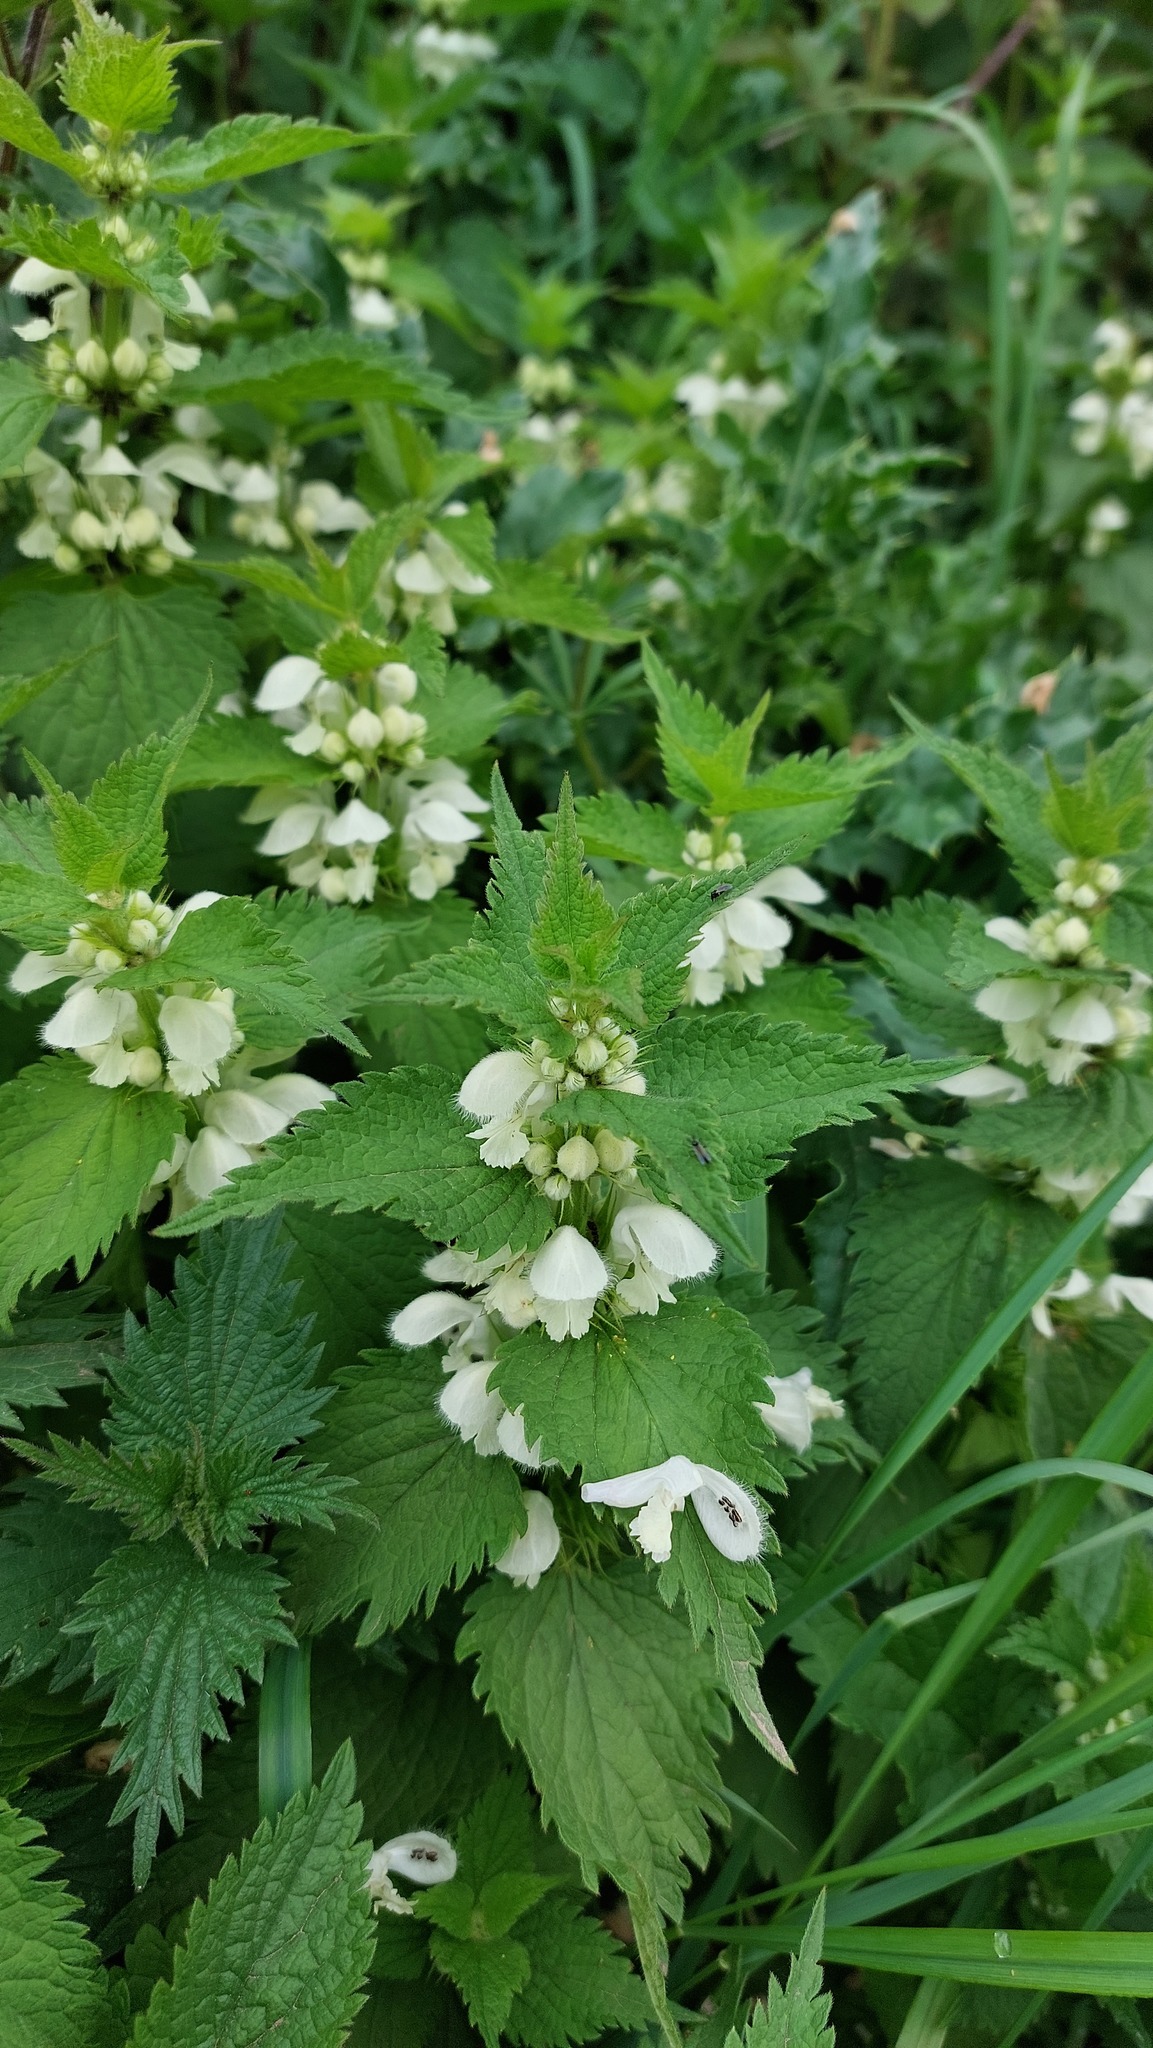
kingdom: Plantae
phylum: Tracheophyta
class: Magnoliopsida
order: Lamiales
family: Lamiaceae
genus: Lamium
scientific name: Lamium album
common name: White dead-nettle
